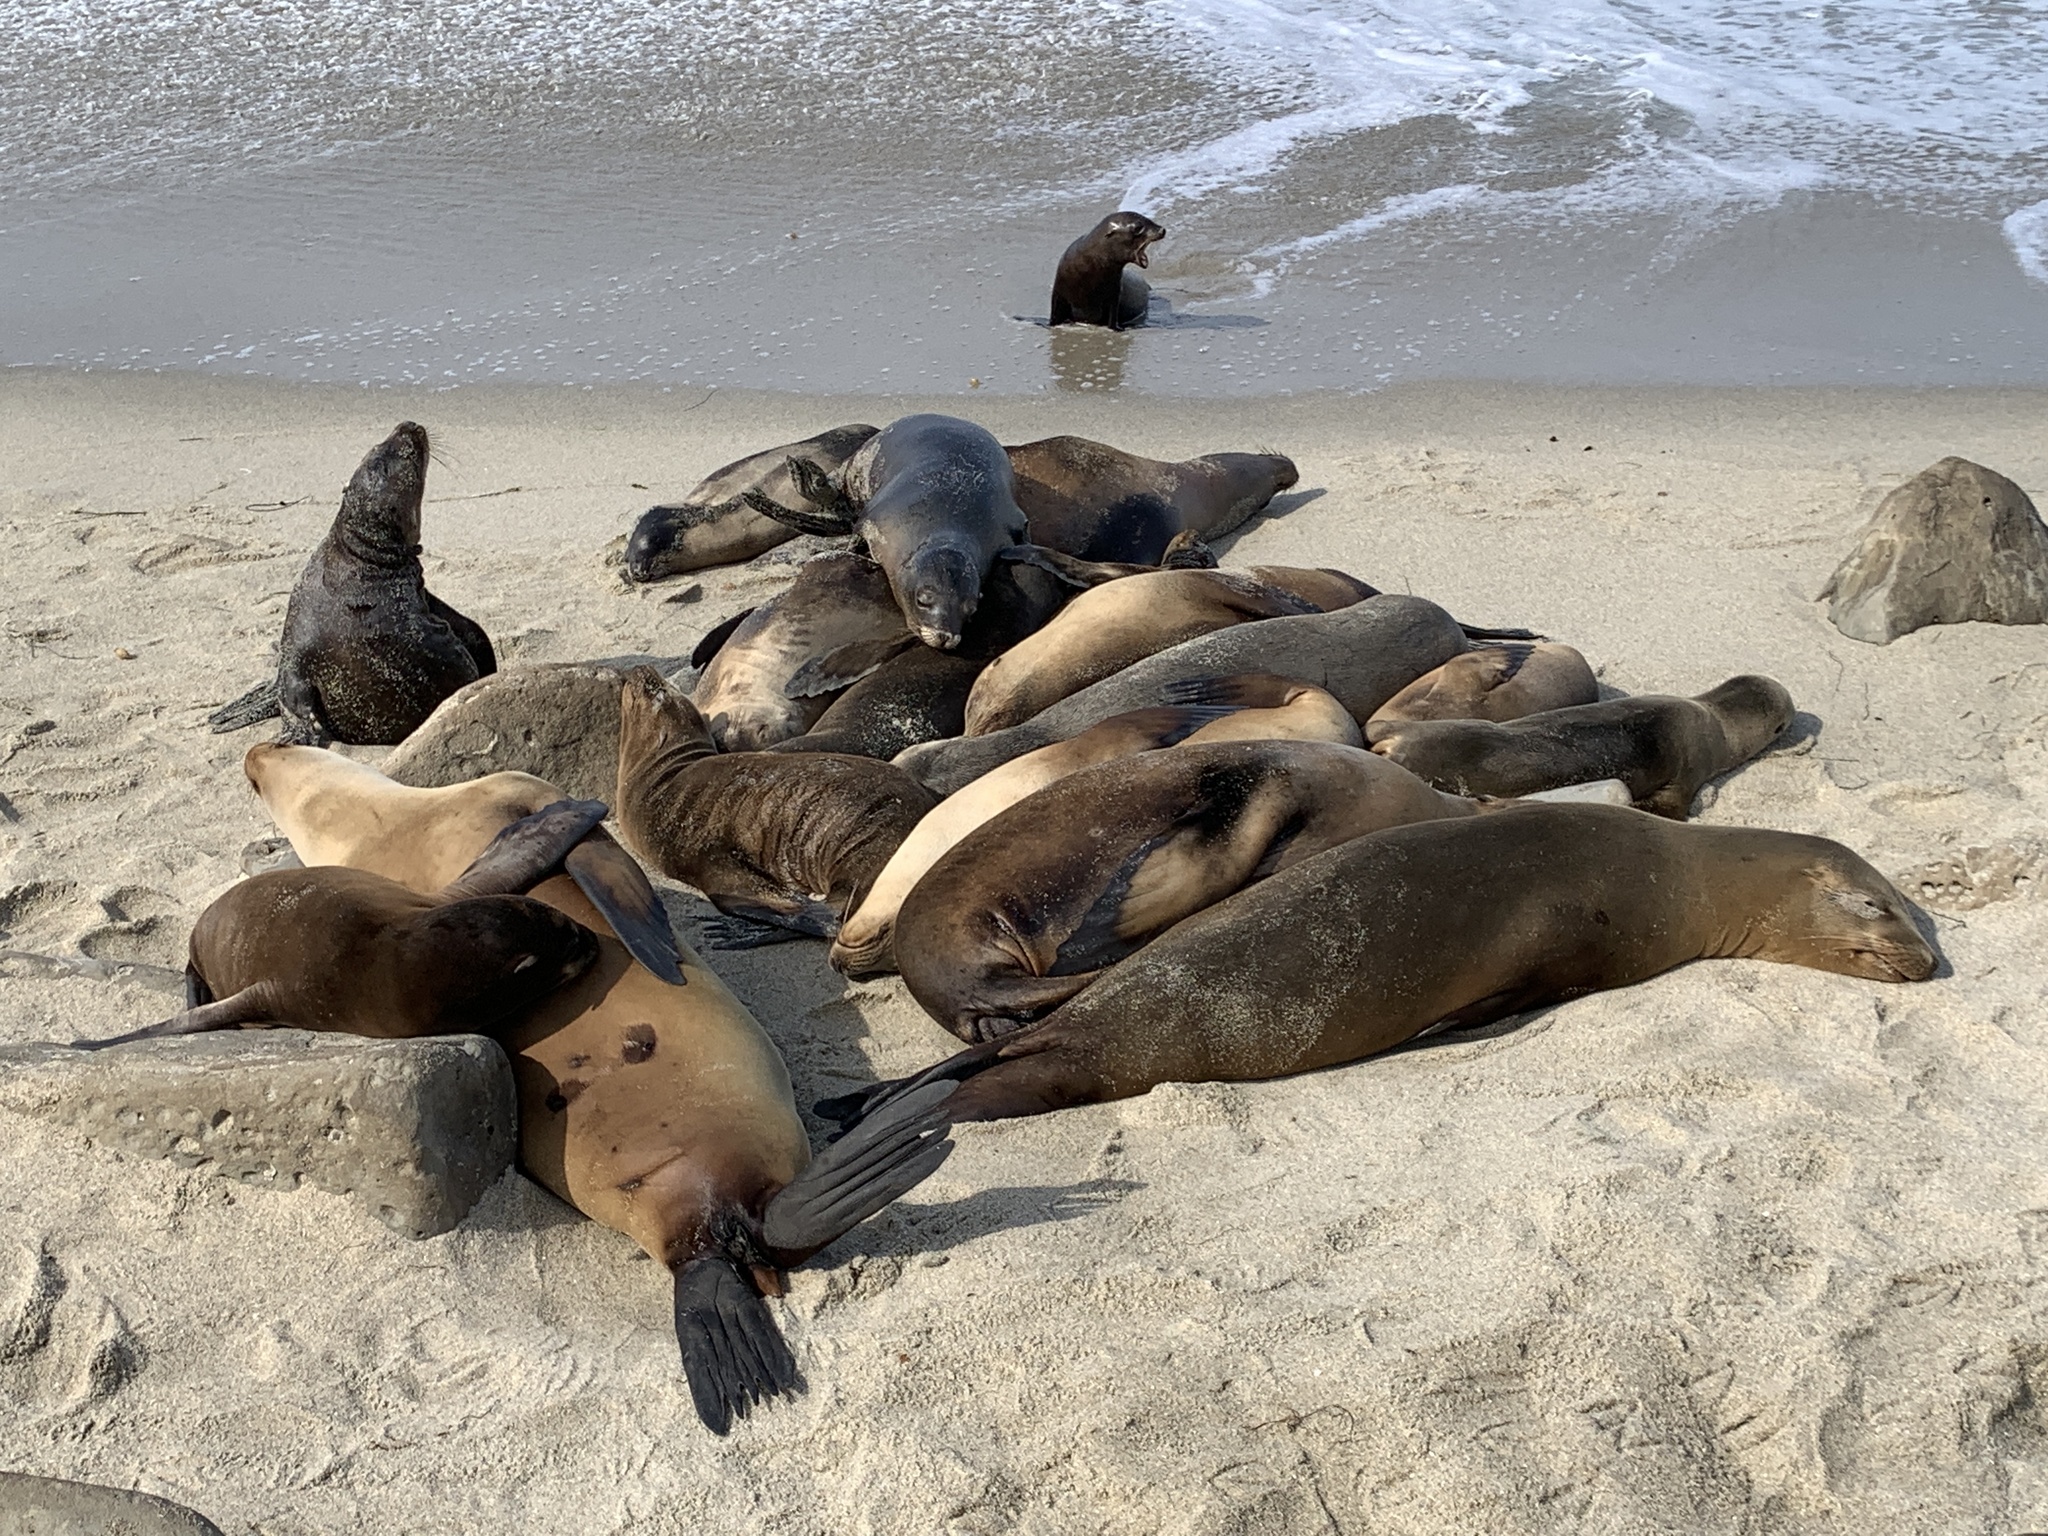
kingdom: Animalia
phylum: Chordata
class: Mammalia
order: Carnivora
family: Otariidae
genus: Zalophus
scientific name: Zalophus californianus
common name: California sea lion
